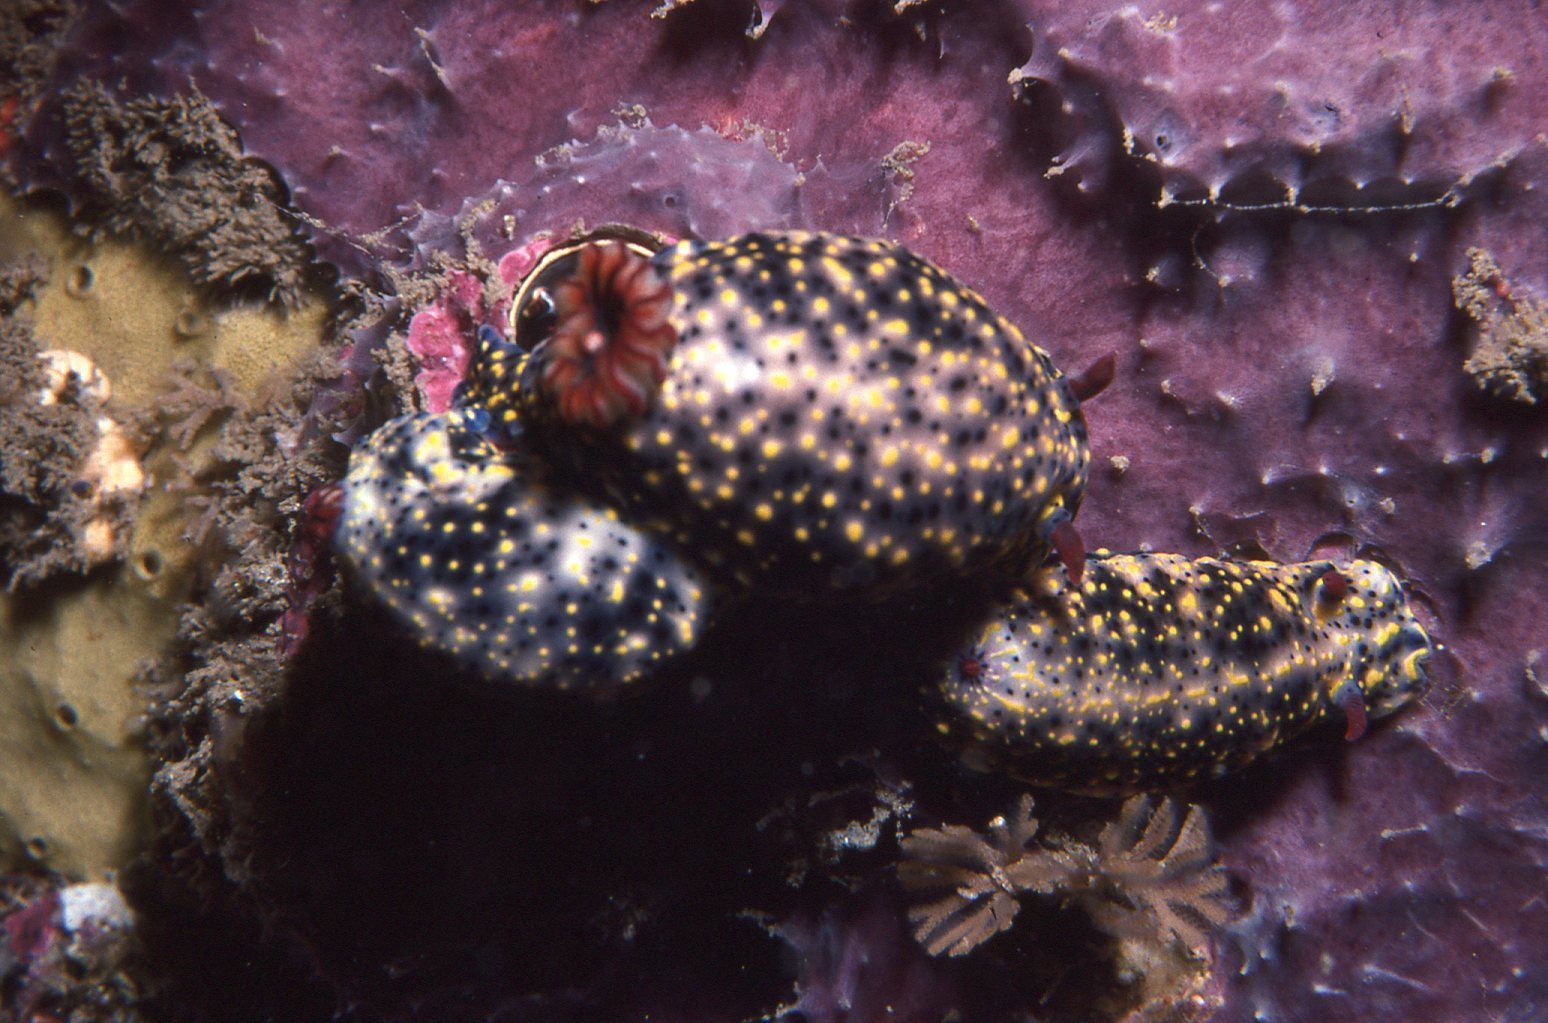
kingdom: Animalia
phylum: Mollusca
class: Gastropoda
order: Nudibranchia
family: Chromodorididae
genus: Hypselodoris
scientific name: Hypselodoris obscura
